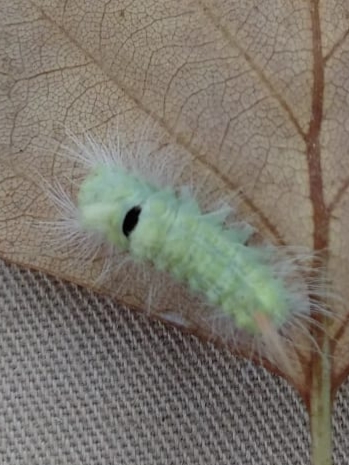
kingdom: Animalia
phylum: Arthropoda
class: Insecta
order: Lepidoptera
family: Erebidae
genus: Calliteara
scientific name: Calliteara pudibunda
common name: Pale tussock
